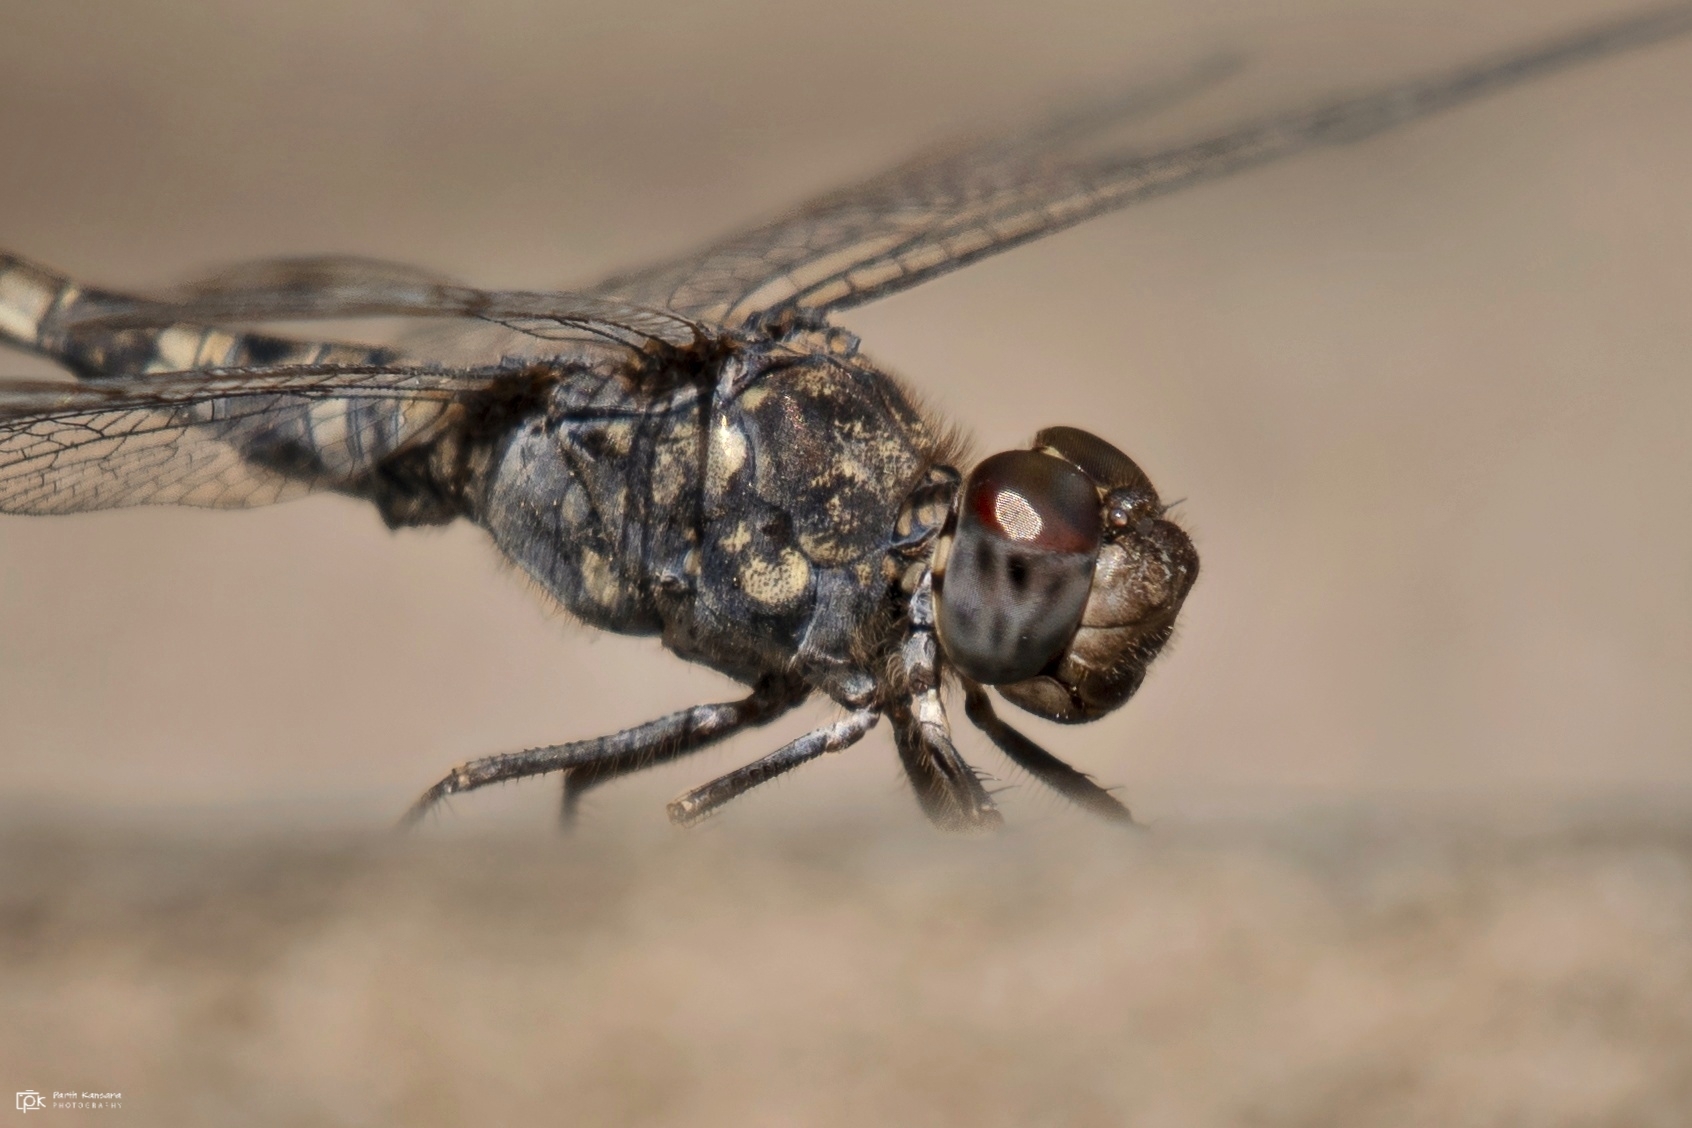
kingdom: Animalia
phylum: Arthropoda
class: Insecta
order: Odonata
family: Libellulidae
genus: Bradinopyga
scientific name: Bradinopyga geminata
